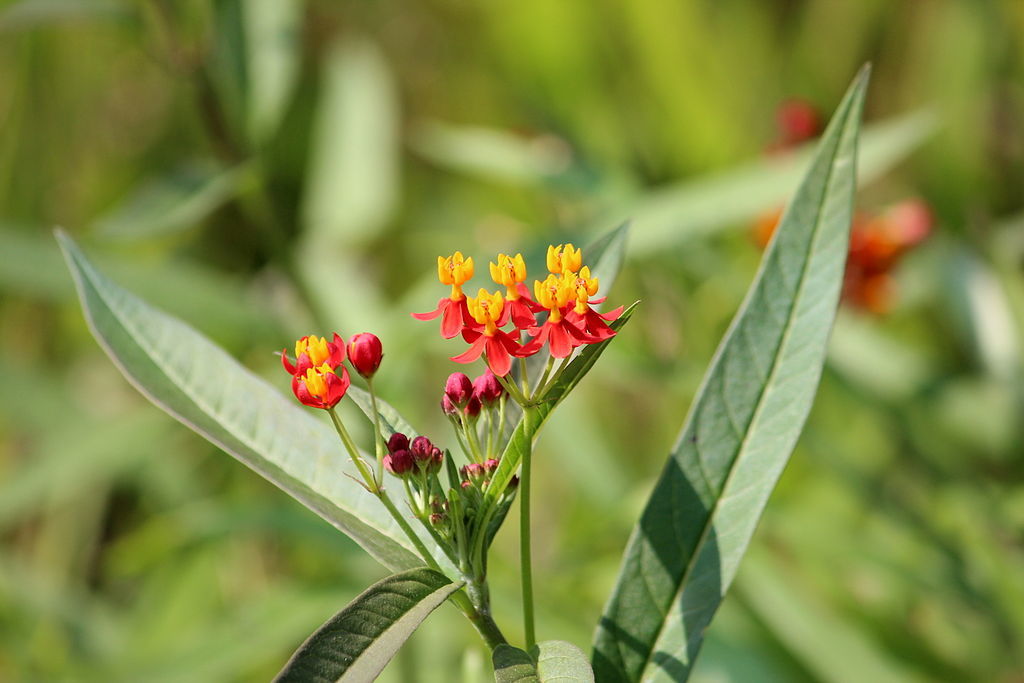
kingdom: Plantae
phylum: Tracheophyta
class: Magnoliopsida
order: Gentianales
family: Apocynaceae
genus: Asclepias
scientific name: Asclepias curassavica
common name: Bloodflower
